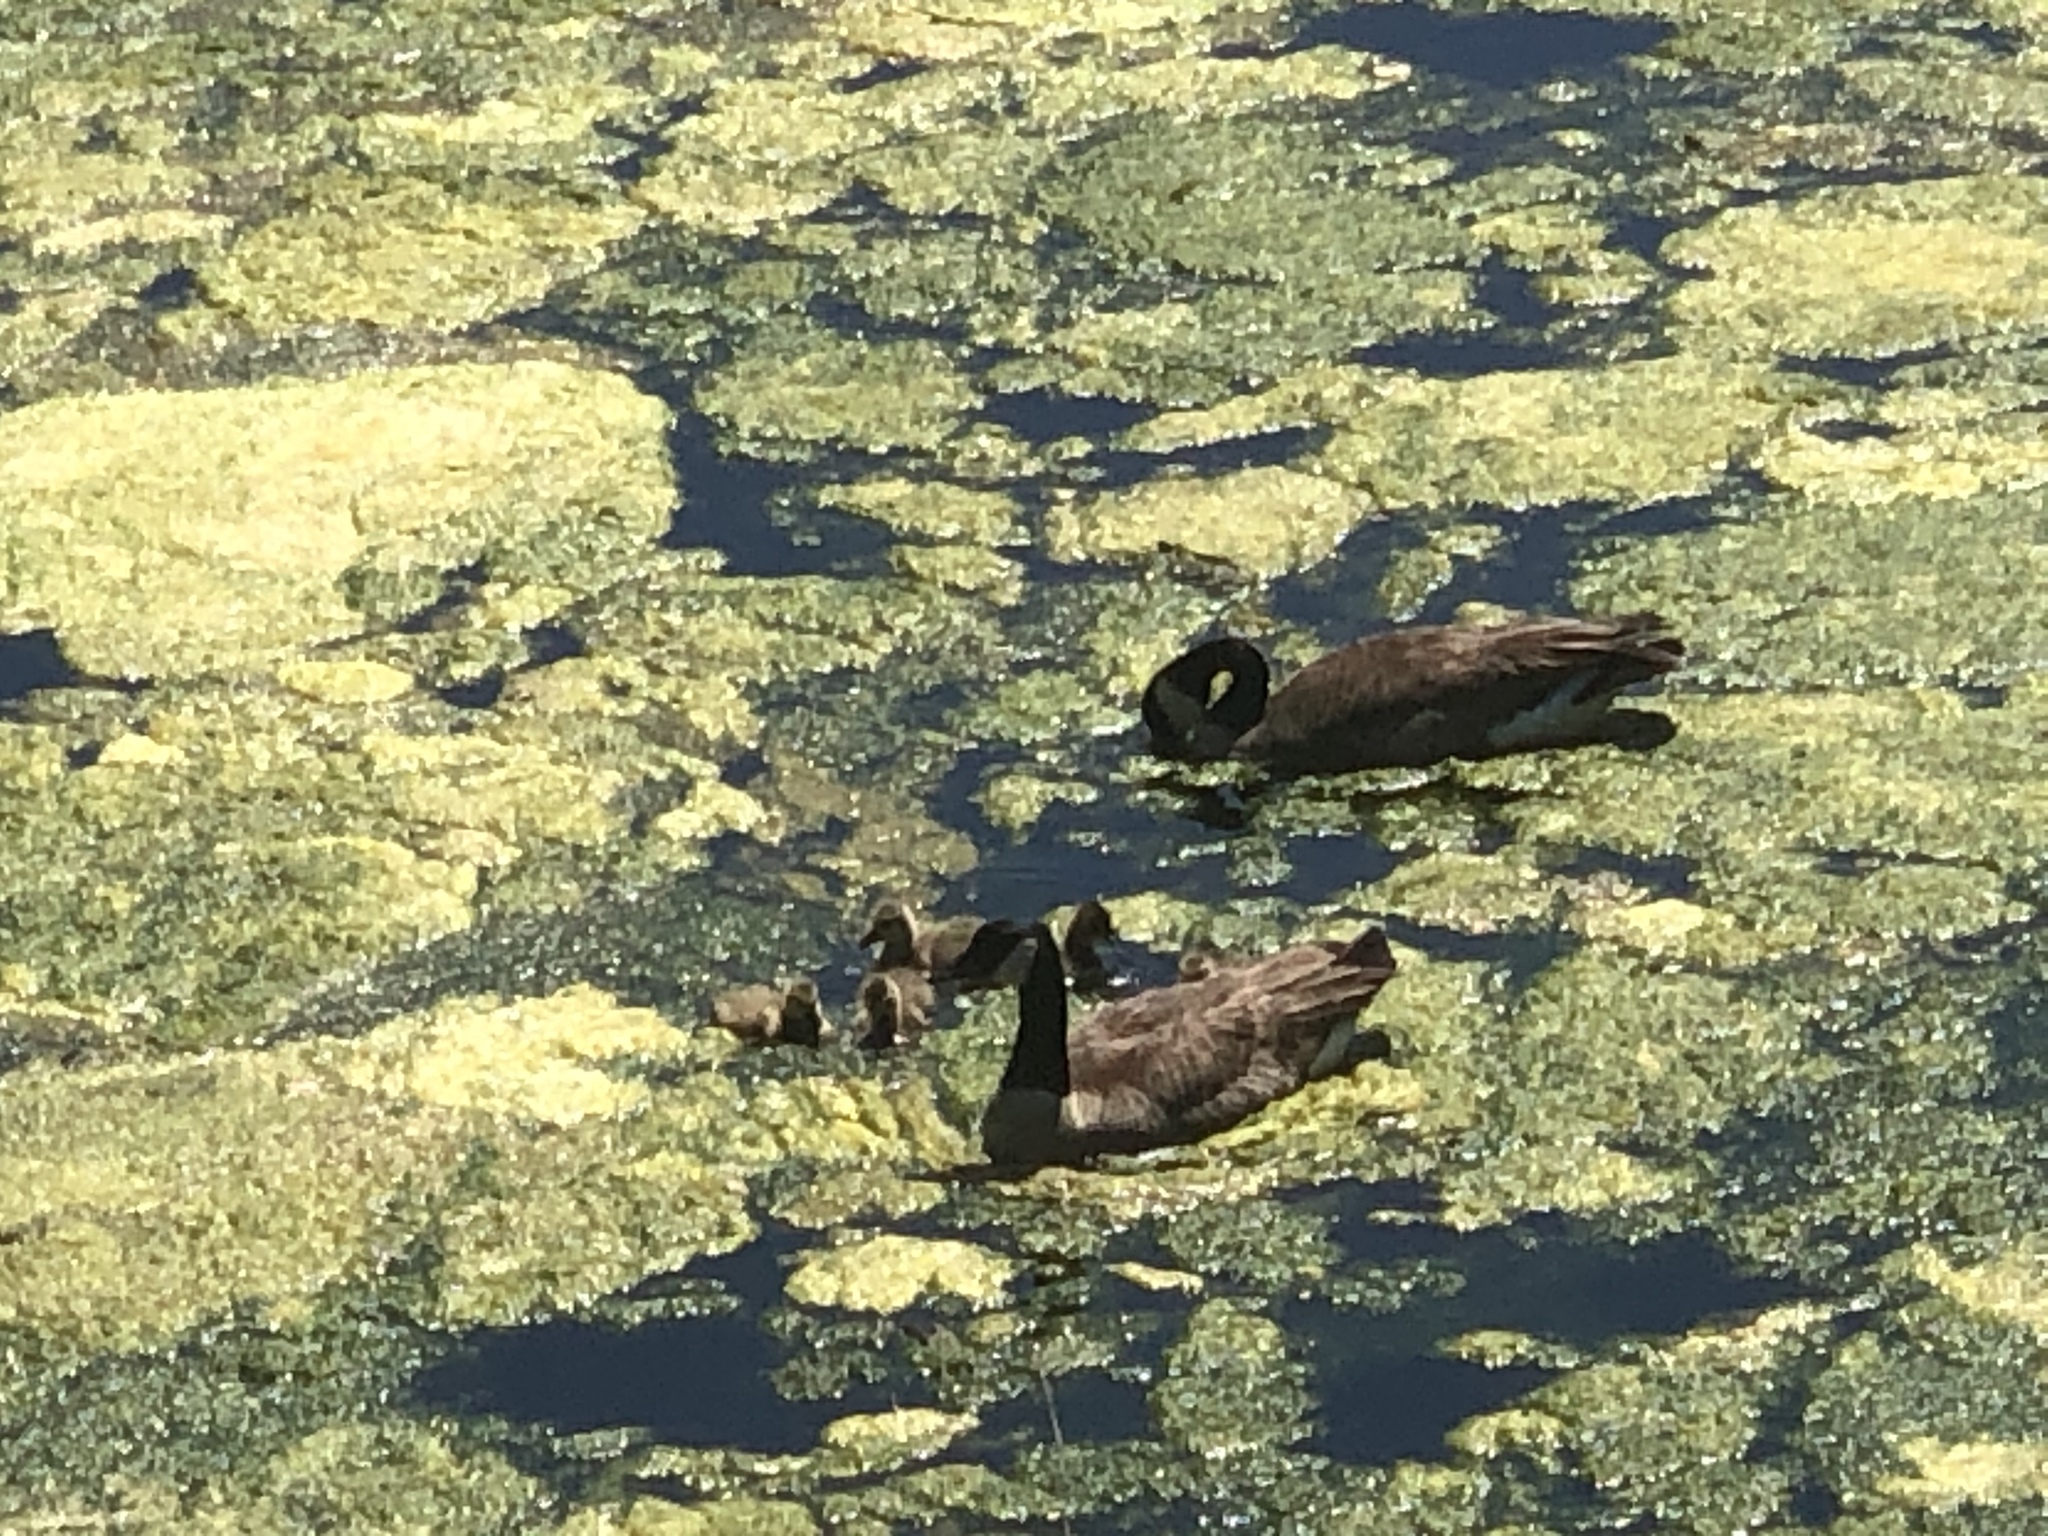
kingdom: Animalia
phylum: Chordata
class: Aves
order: Anseriformes
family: Anatidae
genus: Branta
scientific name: Branta canadensis
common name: Canada goose
